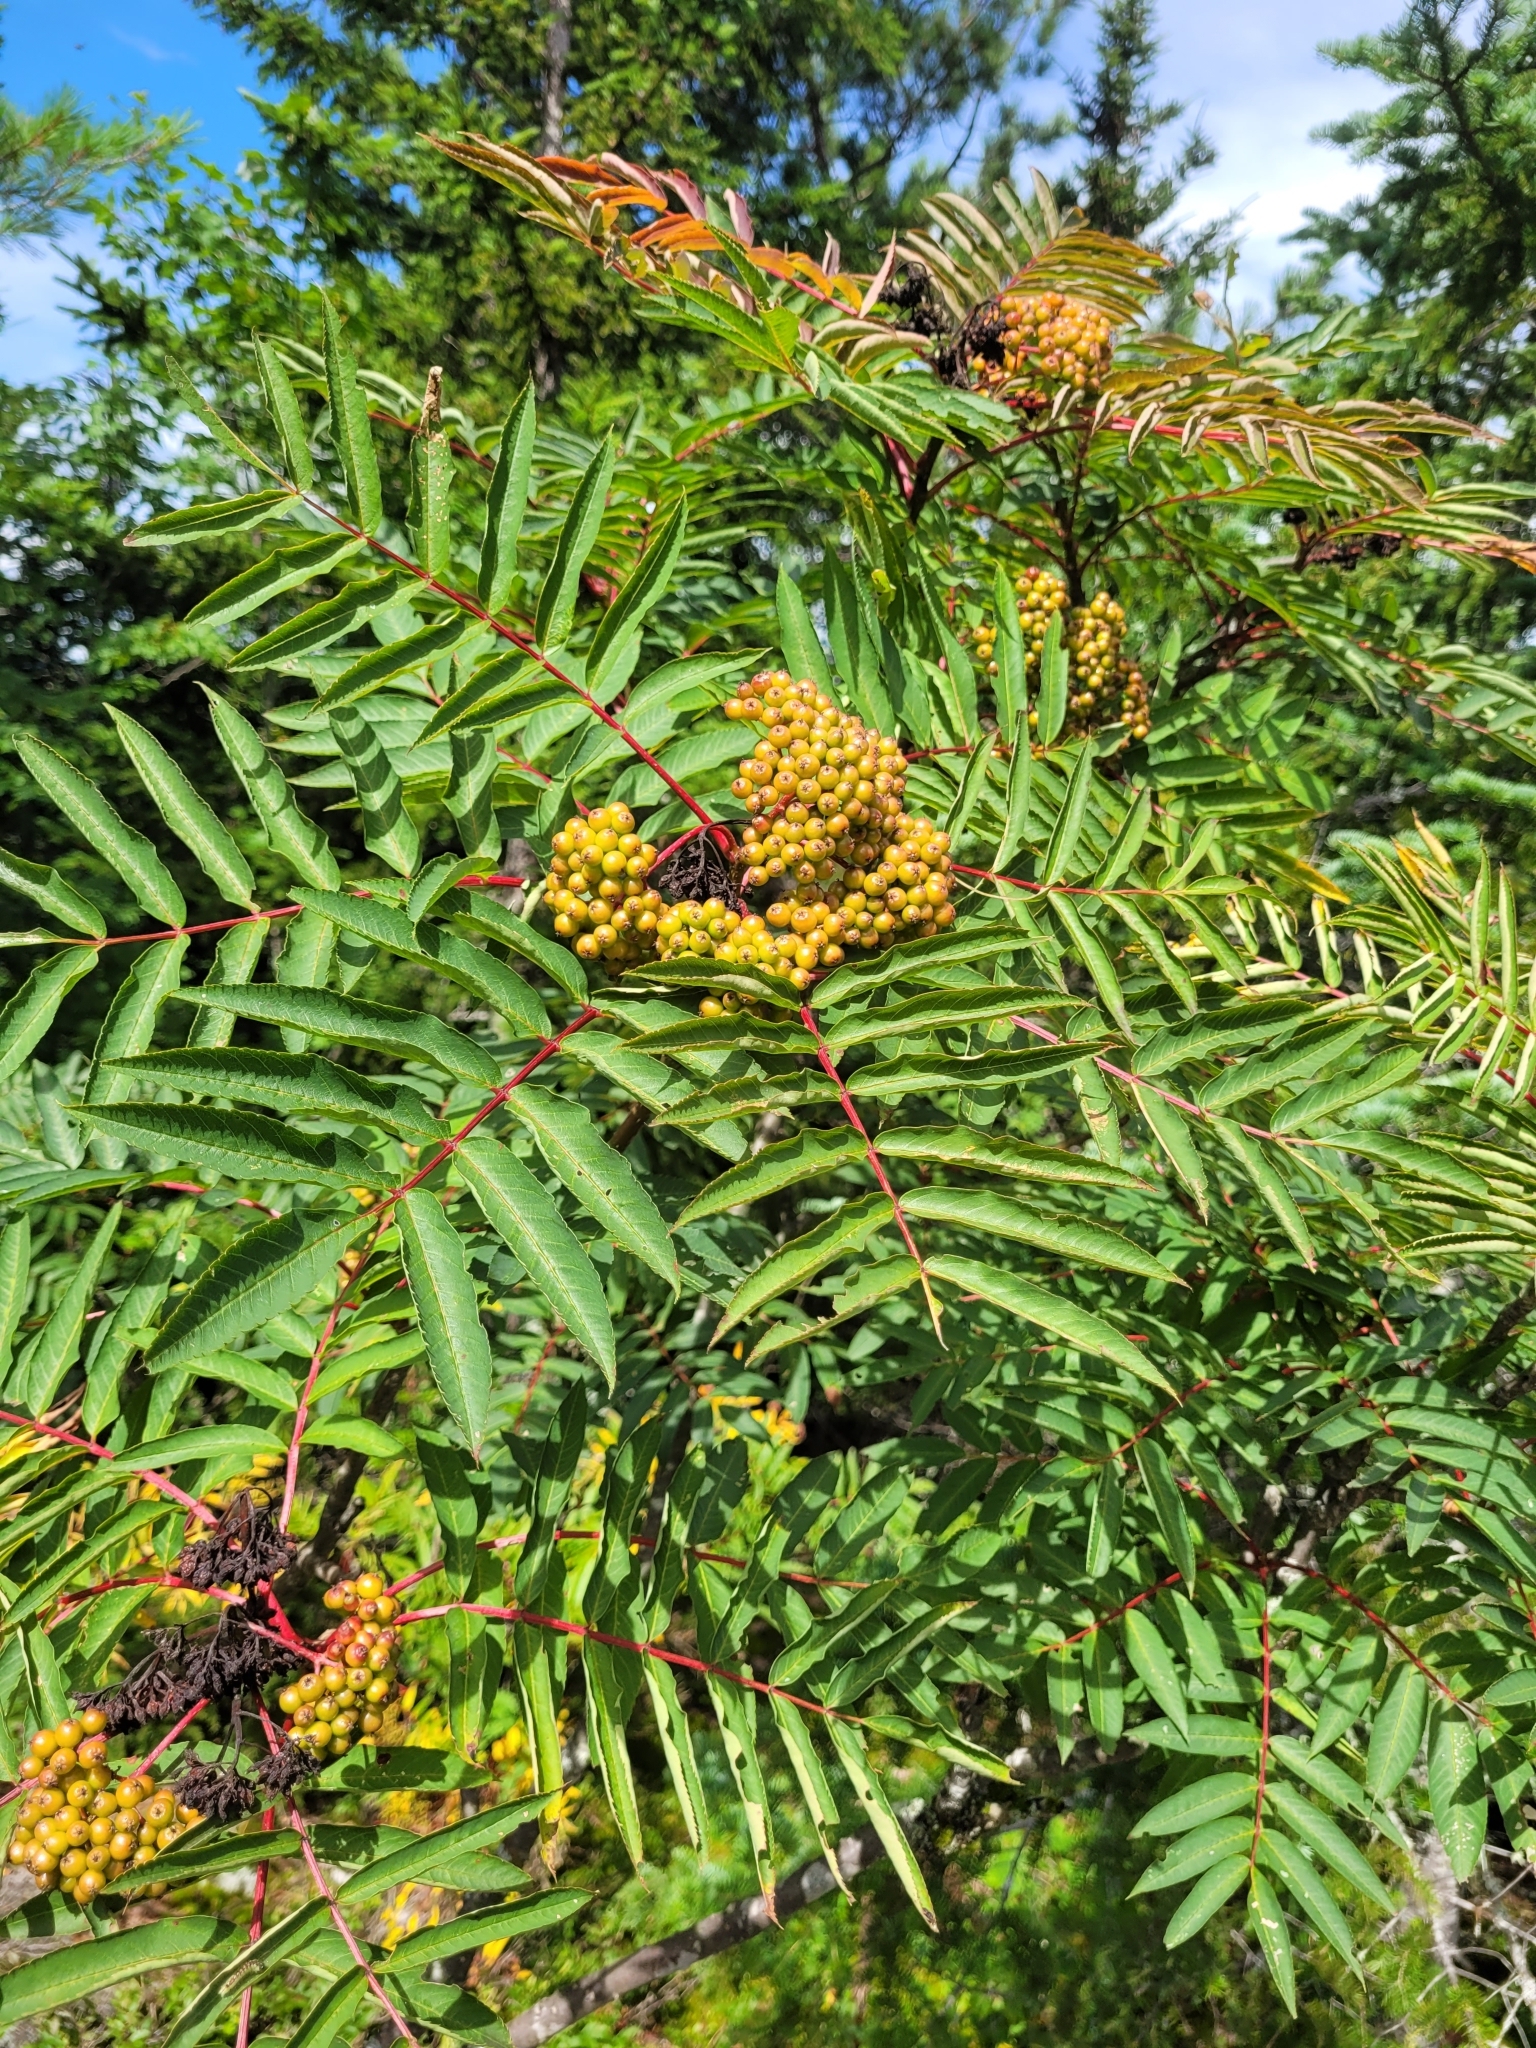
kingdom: Plantae
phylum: Tracheophyta
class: Magnoliopsida
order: Rosales
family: Rosaceae
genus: Sorbus
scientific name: Sorbus americana
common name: American mountain-ash
